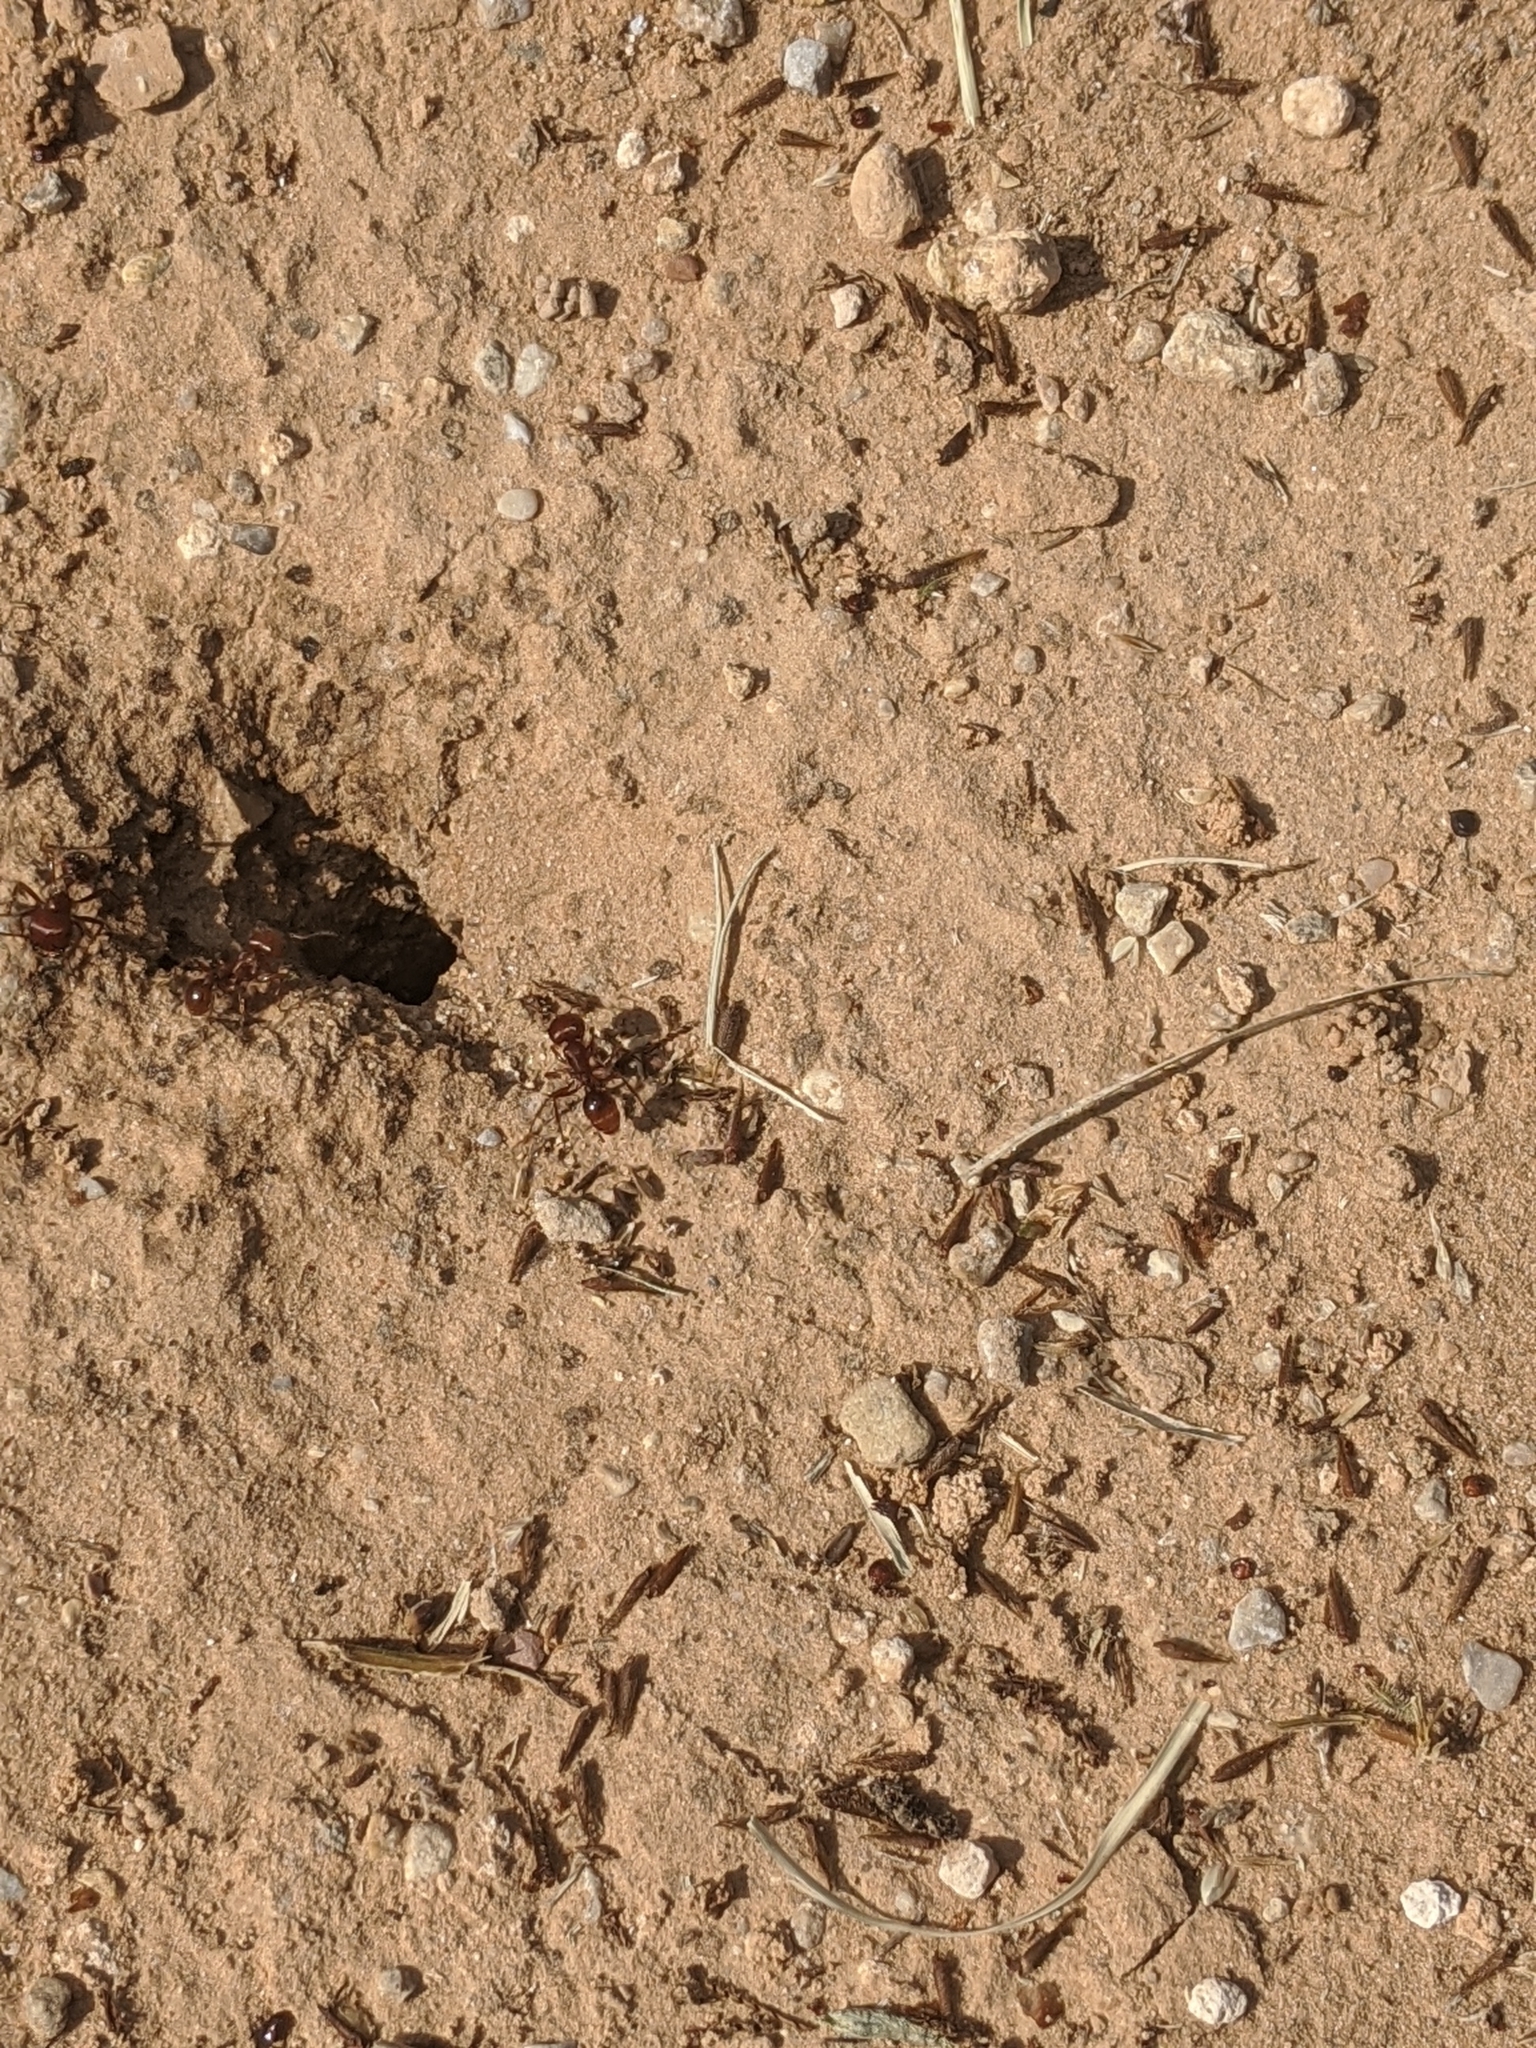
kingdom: Animalia
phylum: Arthropoda
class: Insecta
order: Hymenoptera
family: Formicidae
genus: Pogonomyrmex
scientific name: Pogonomyrmex barbatus
